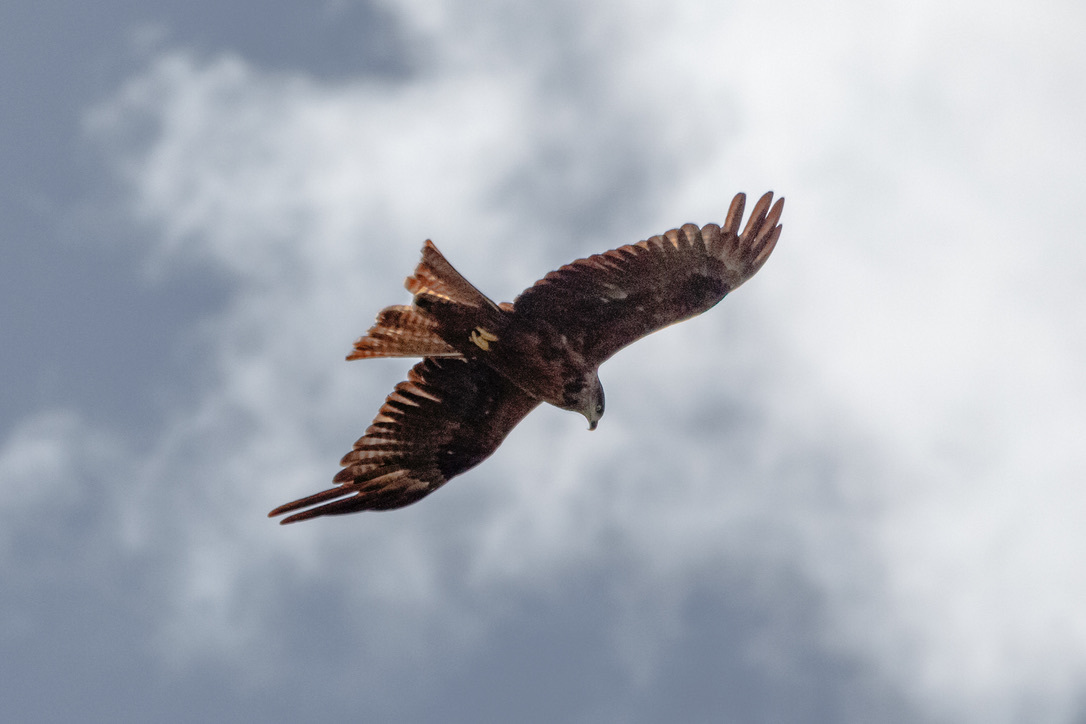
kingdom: Animalia
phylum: Chordata
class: Aves
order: Accipitriformes
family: Accipitridae
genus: Milvus
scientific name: Milvus migrans
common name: Black kite
